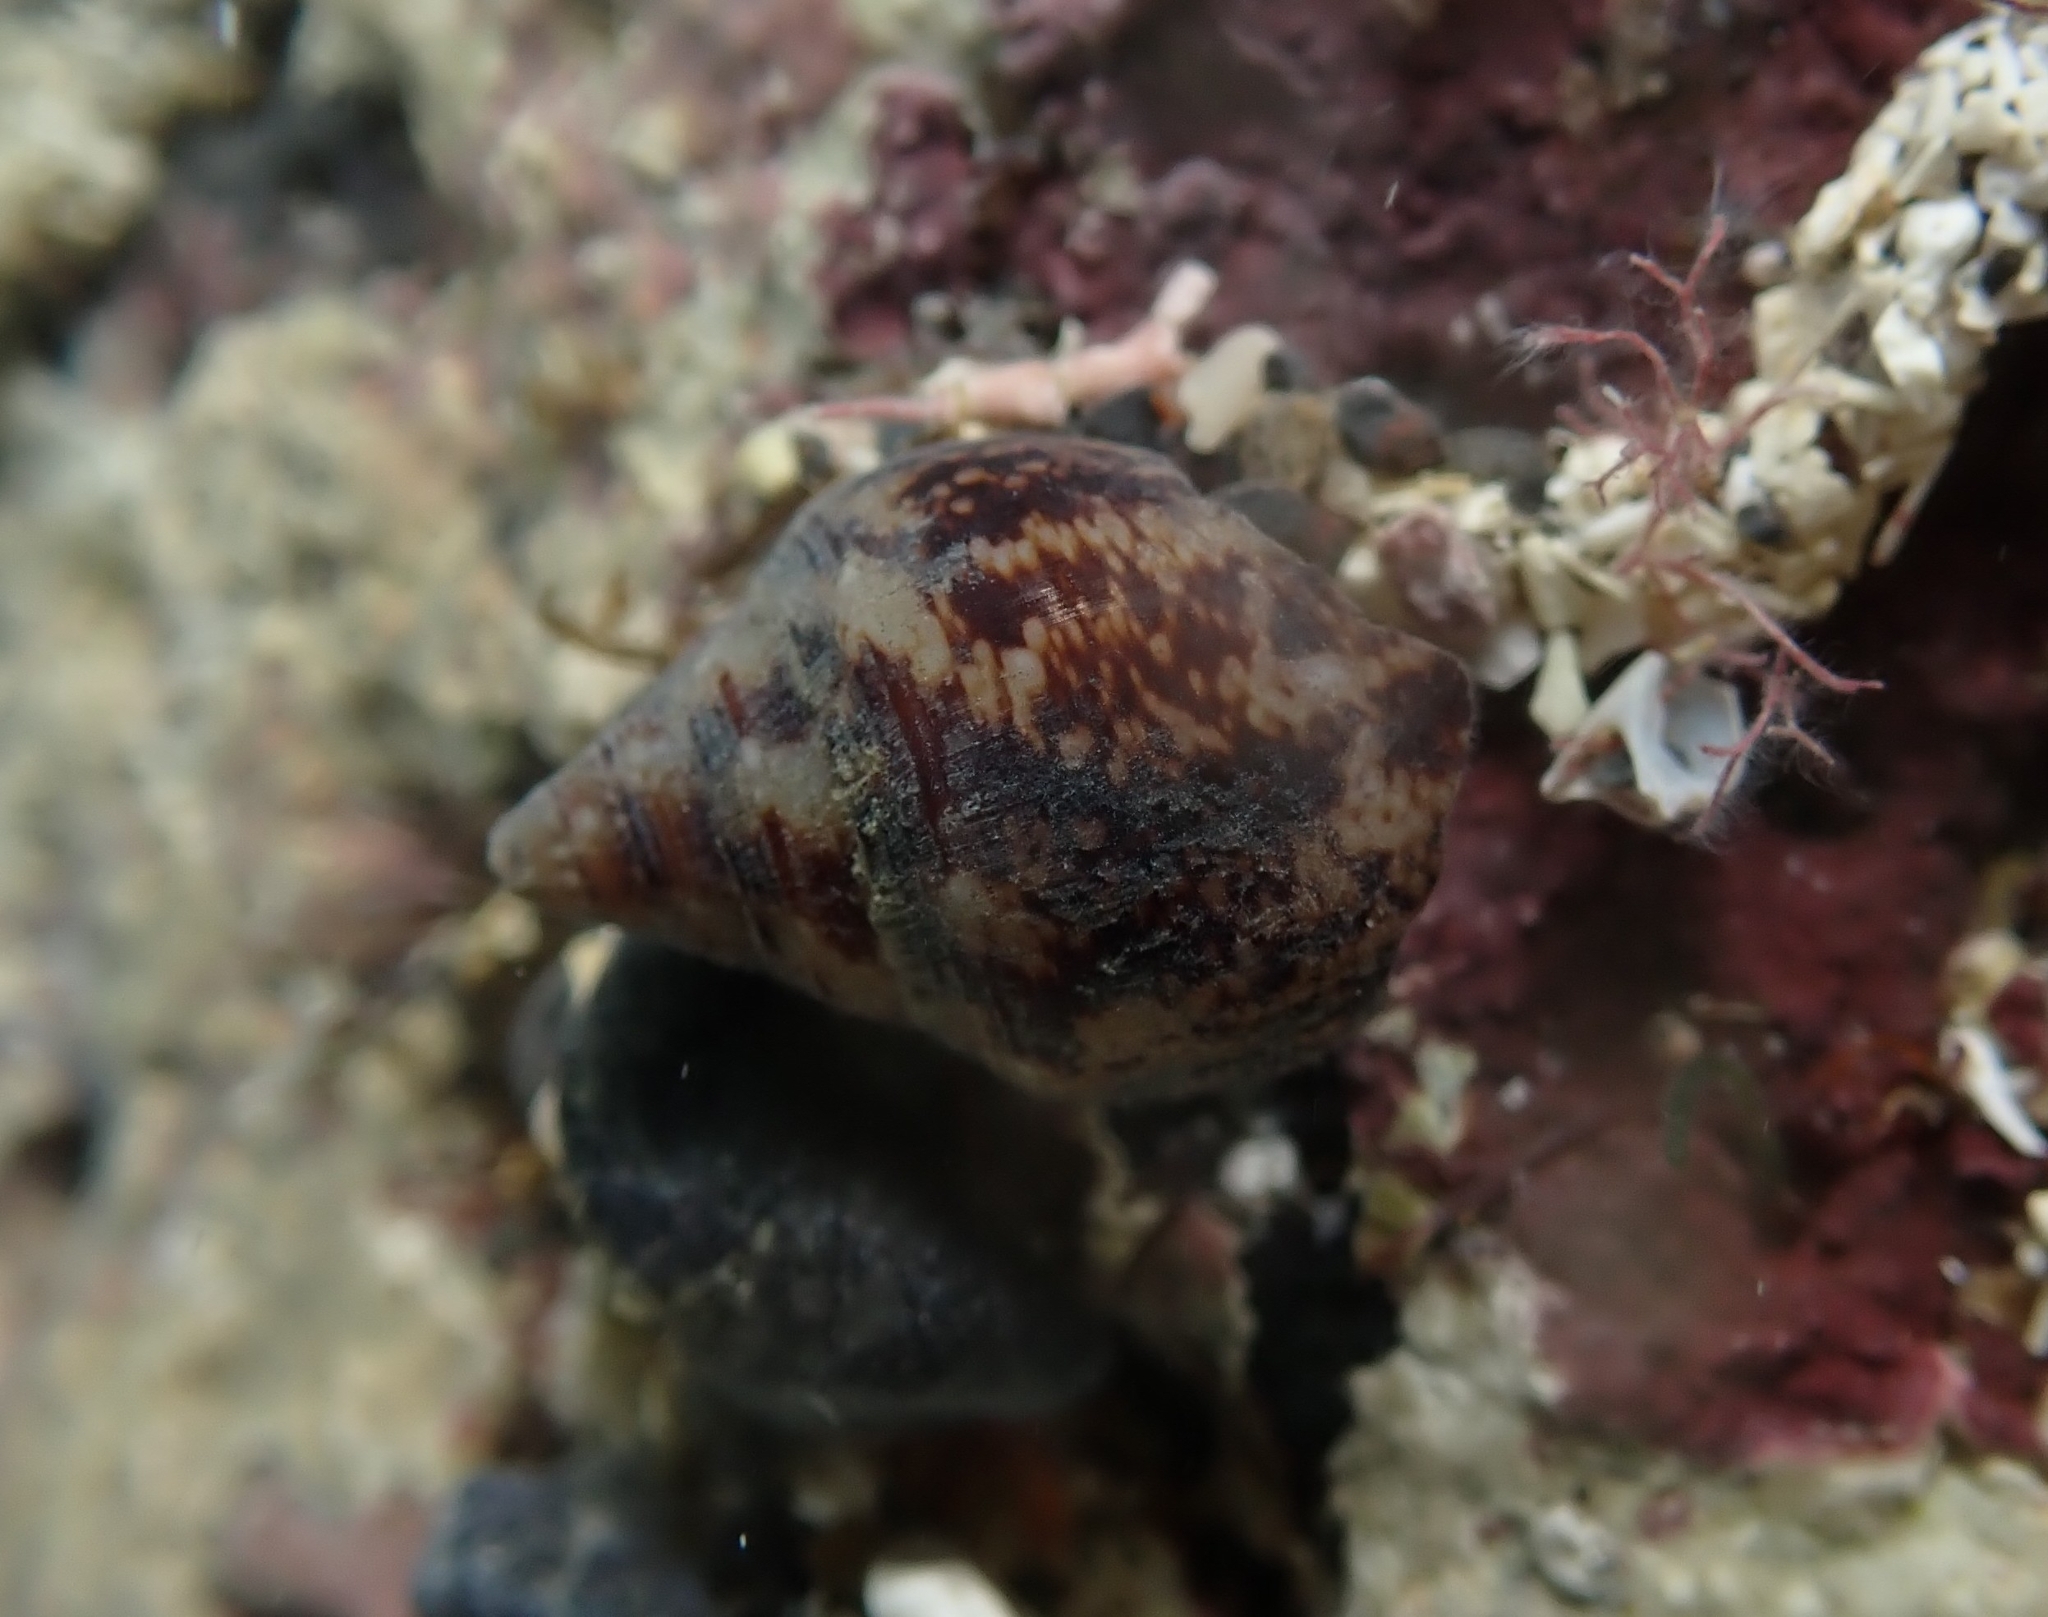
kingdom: Animalia
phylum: Mollusca
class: Gastropoda
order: Neogastropoda
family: Columbellidae
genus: Columbella
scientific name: Columbella adansoni
